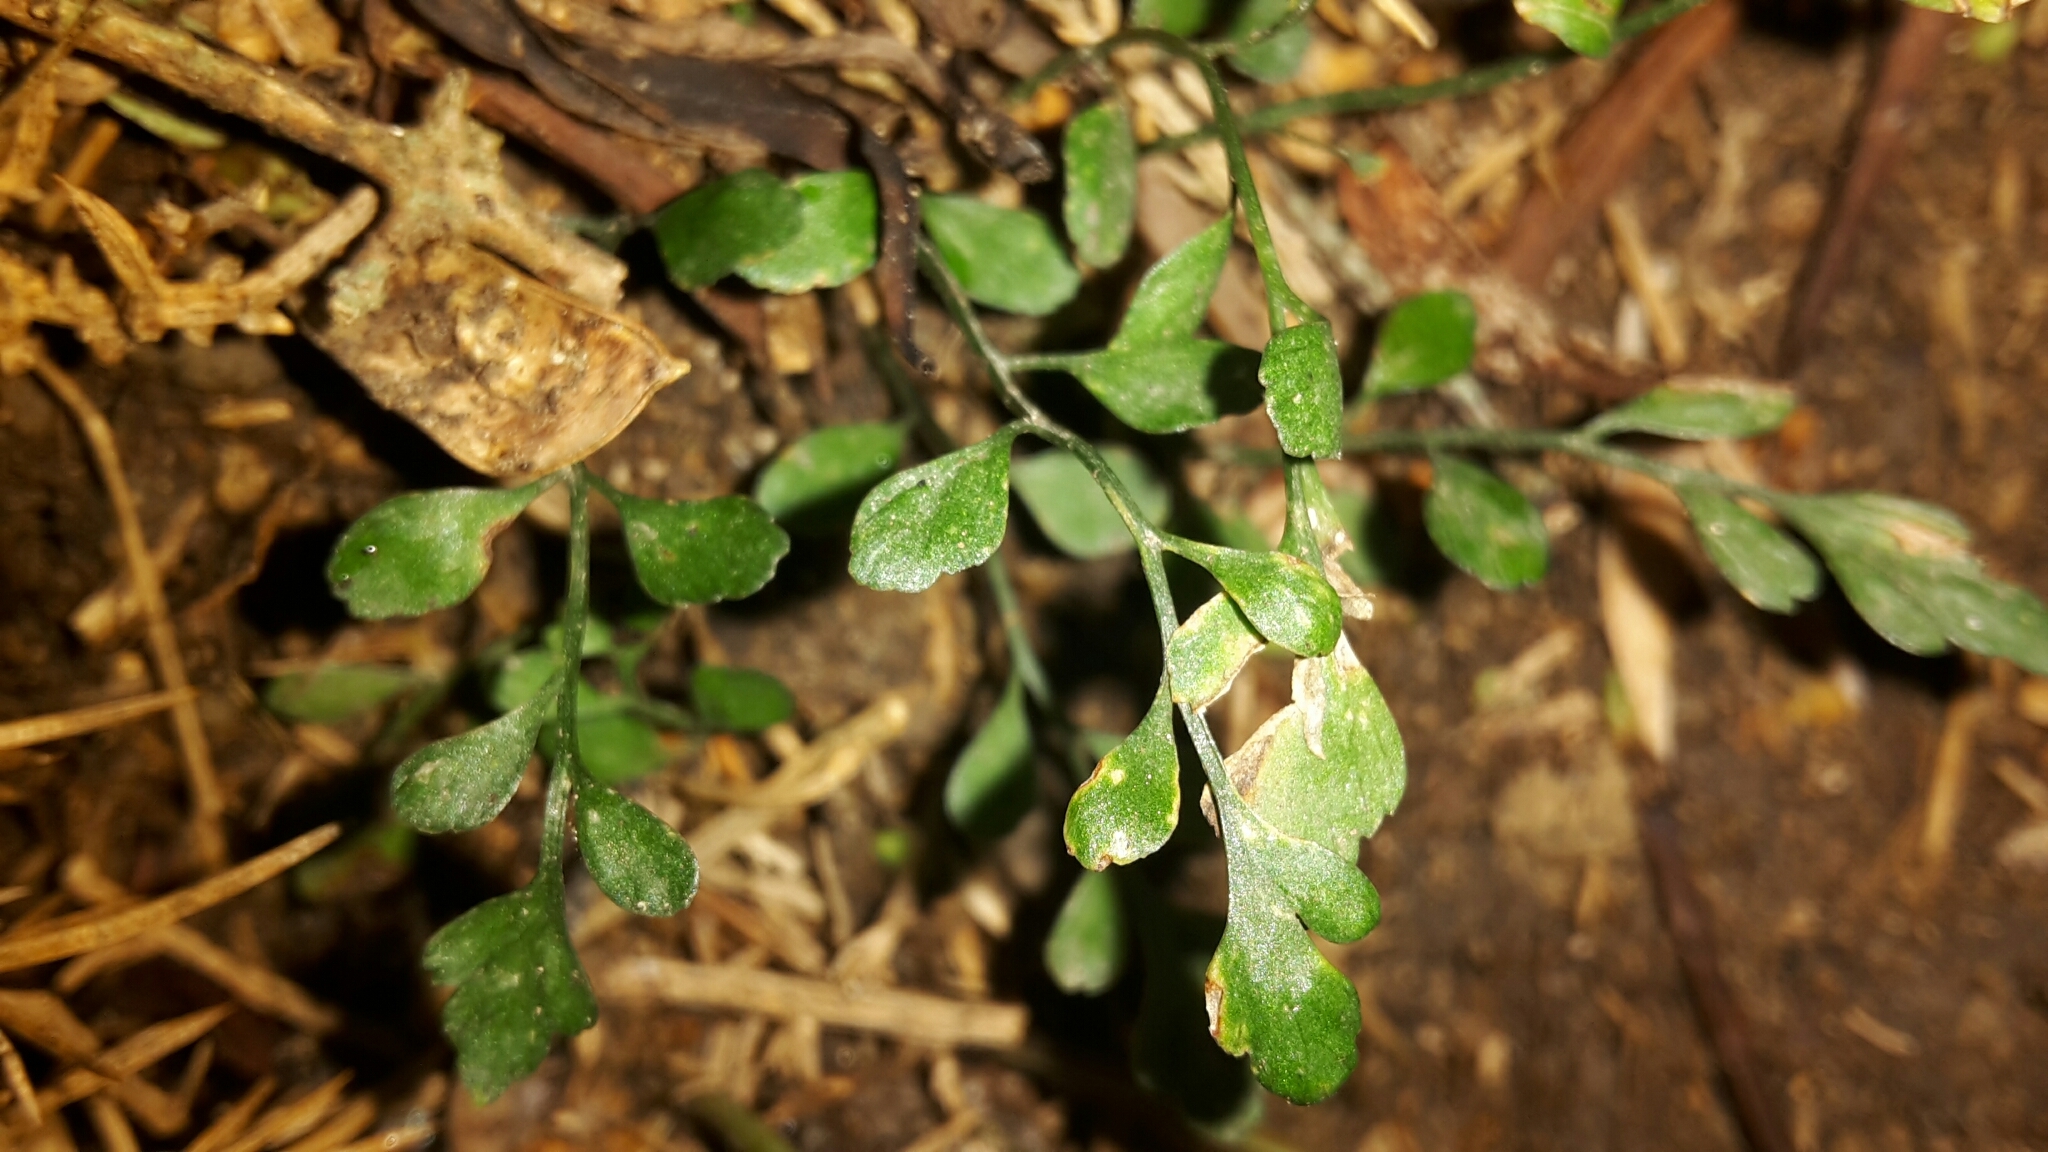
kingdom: Plantae
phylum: Tracheophyta
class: Polypodiopsida
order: Polypodiales
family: Aspleniaceae
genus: Asplenium
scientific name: Asplenium hookerianum
